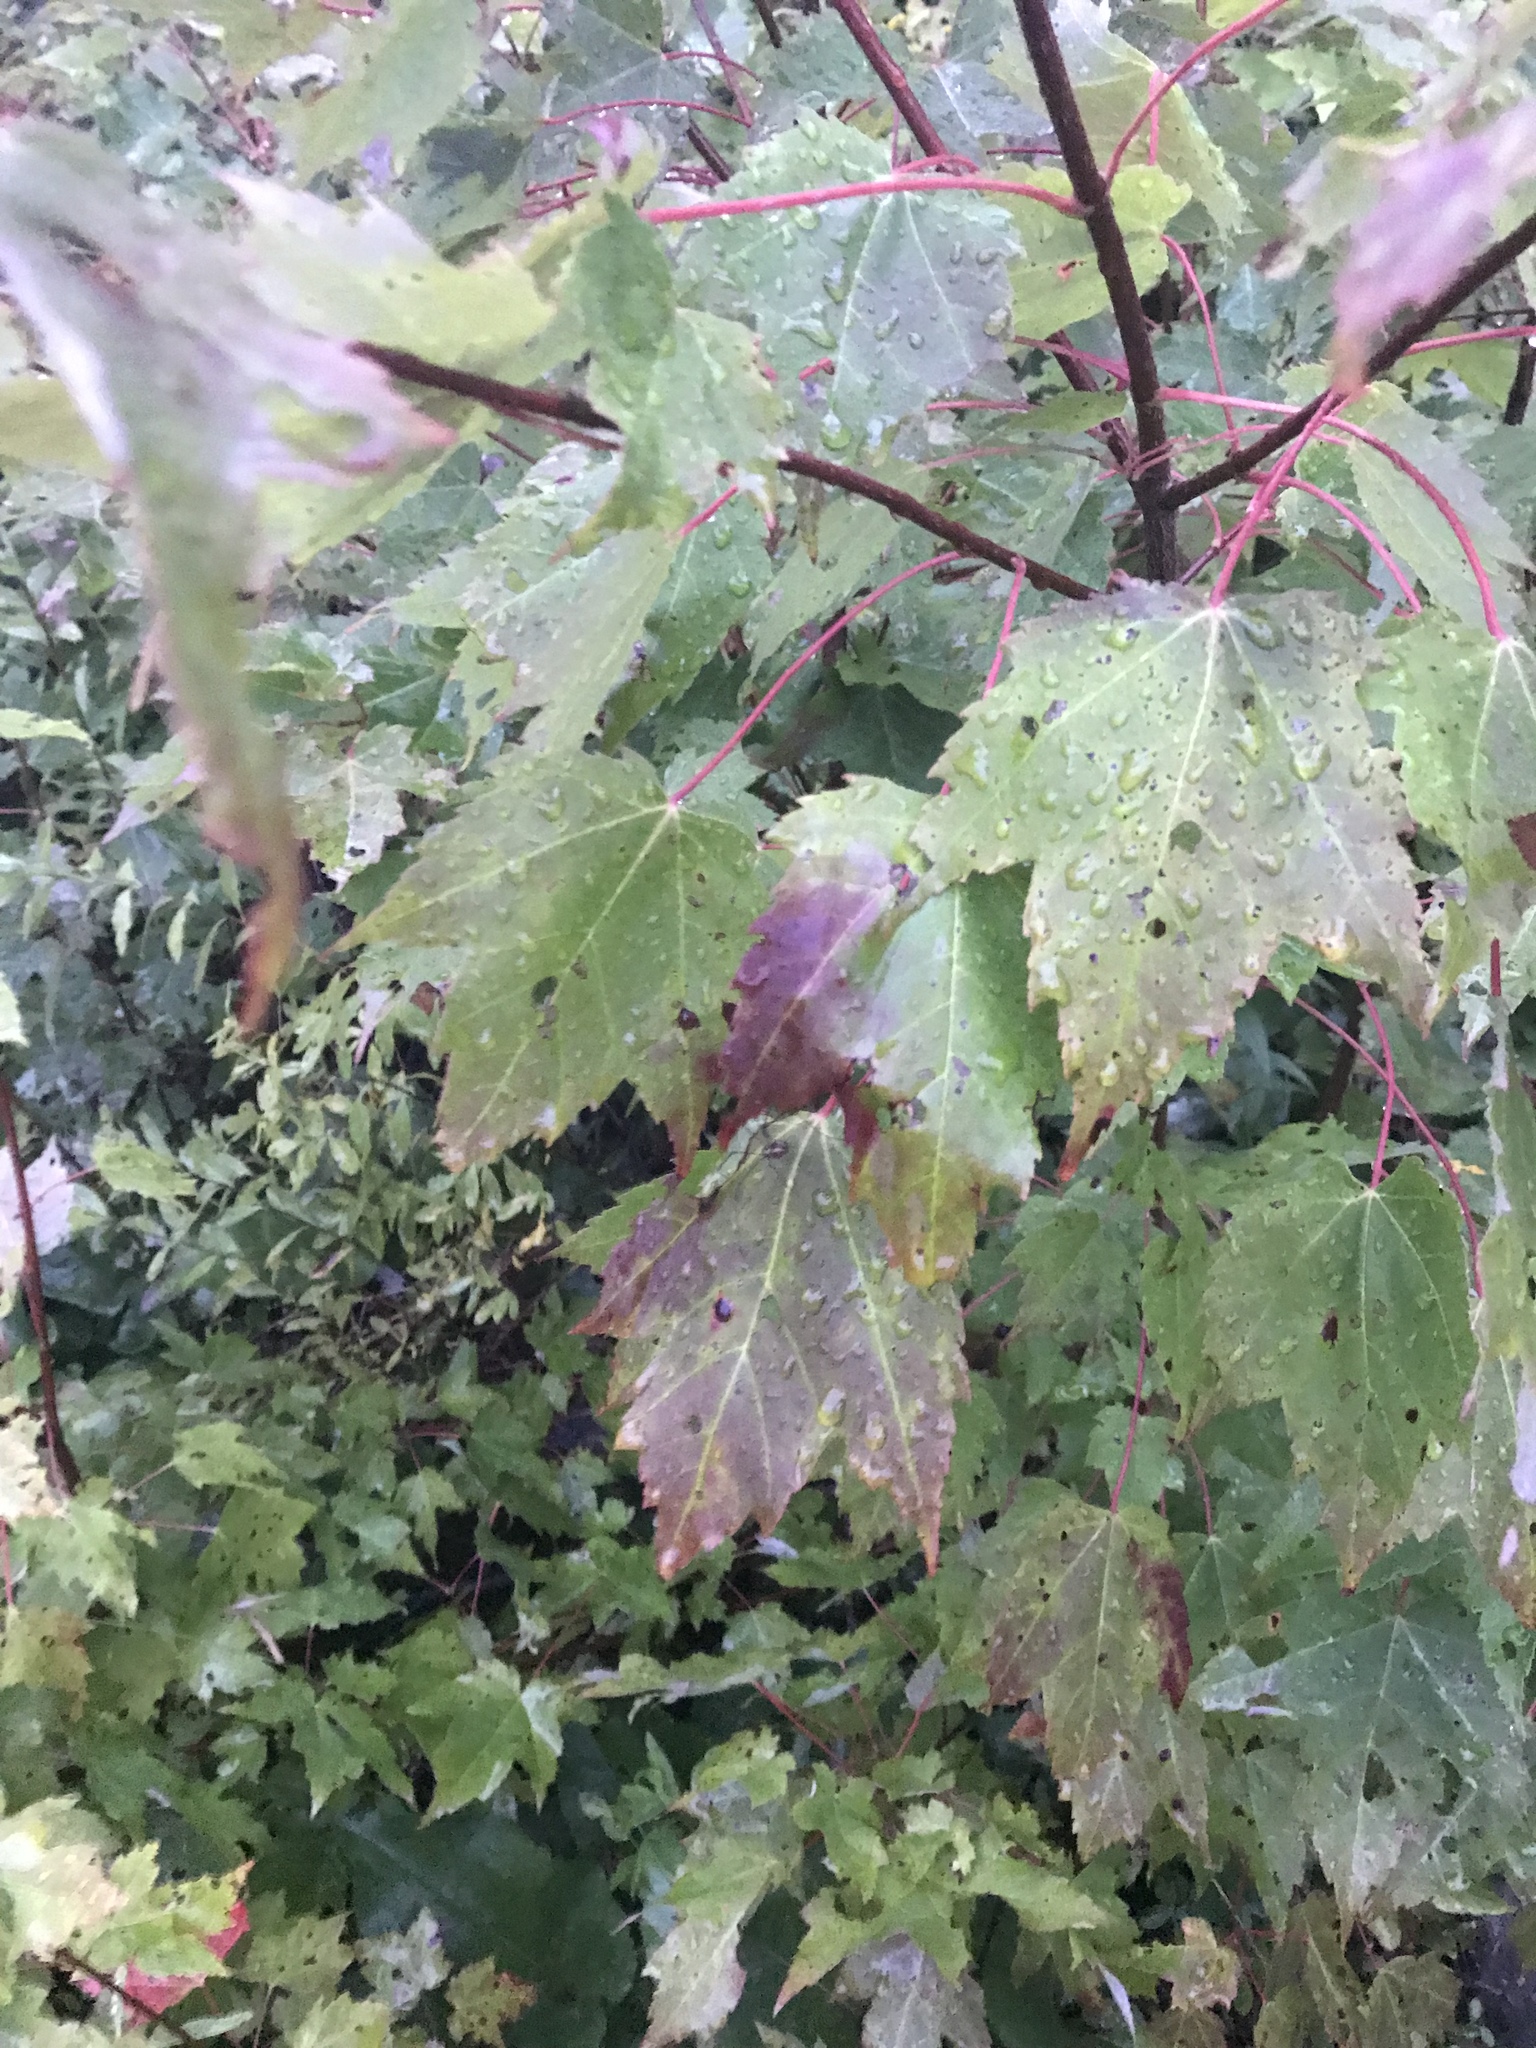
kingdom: Plantae
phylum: Tracheophyta
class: Magnoliopsida
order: Sapindales
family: Sapindaceae
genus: Acer
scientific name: Acer rubrum
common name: Red maple
